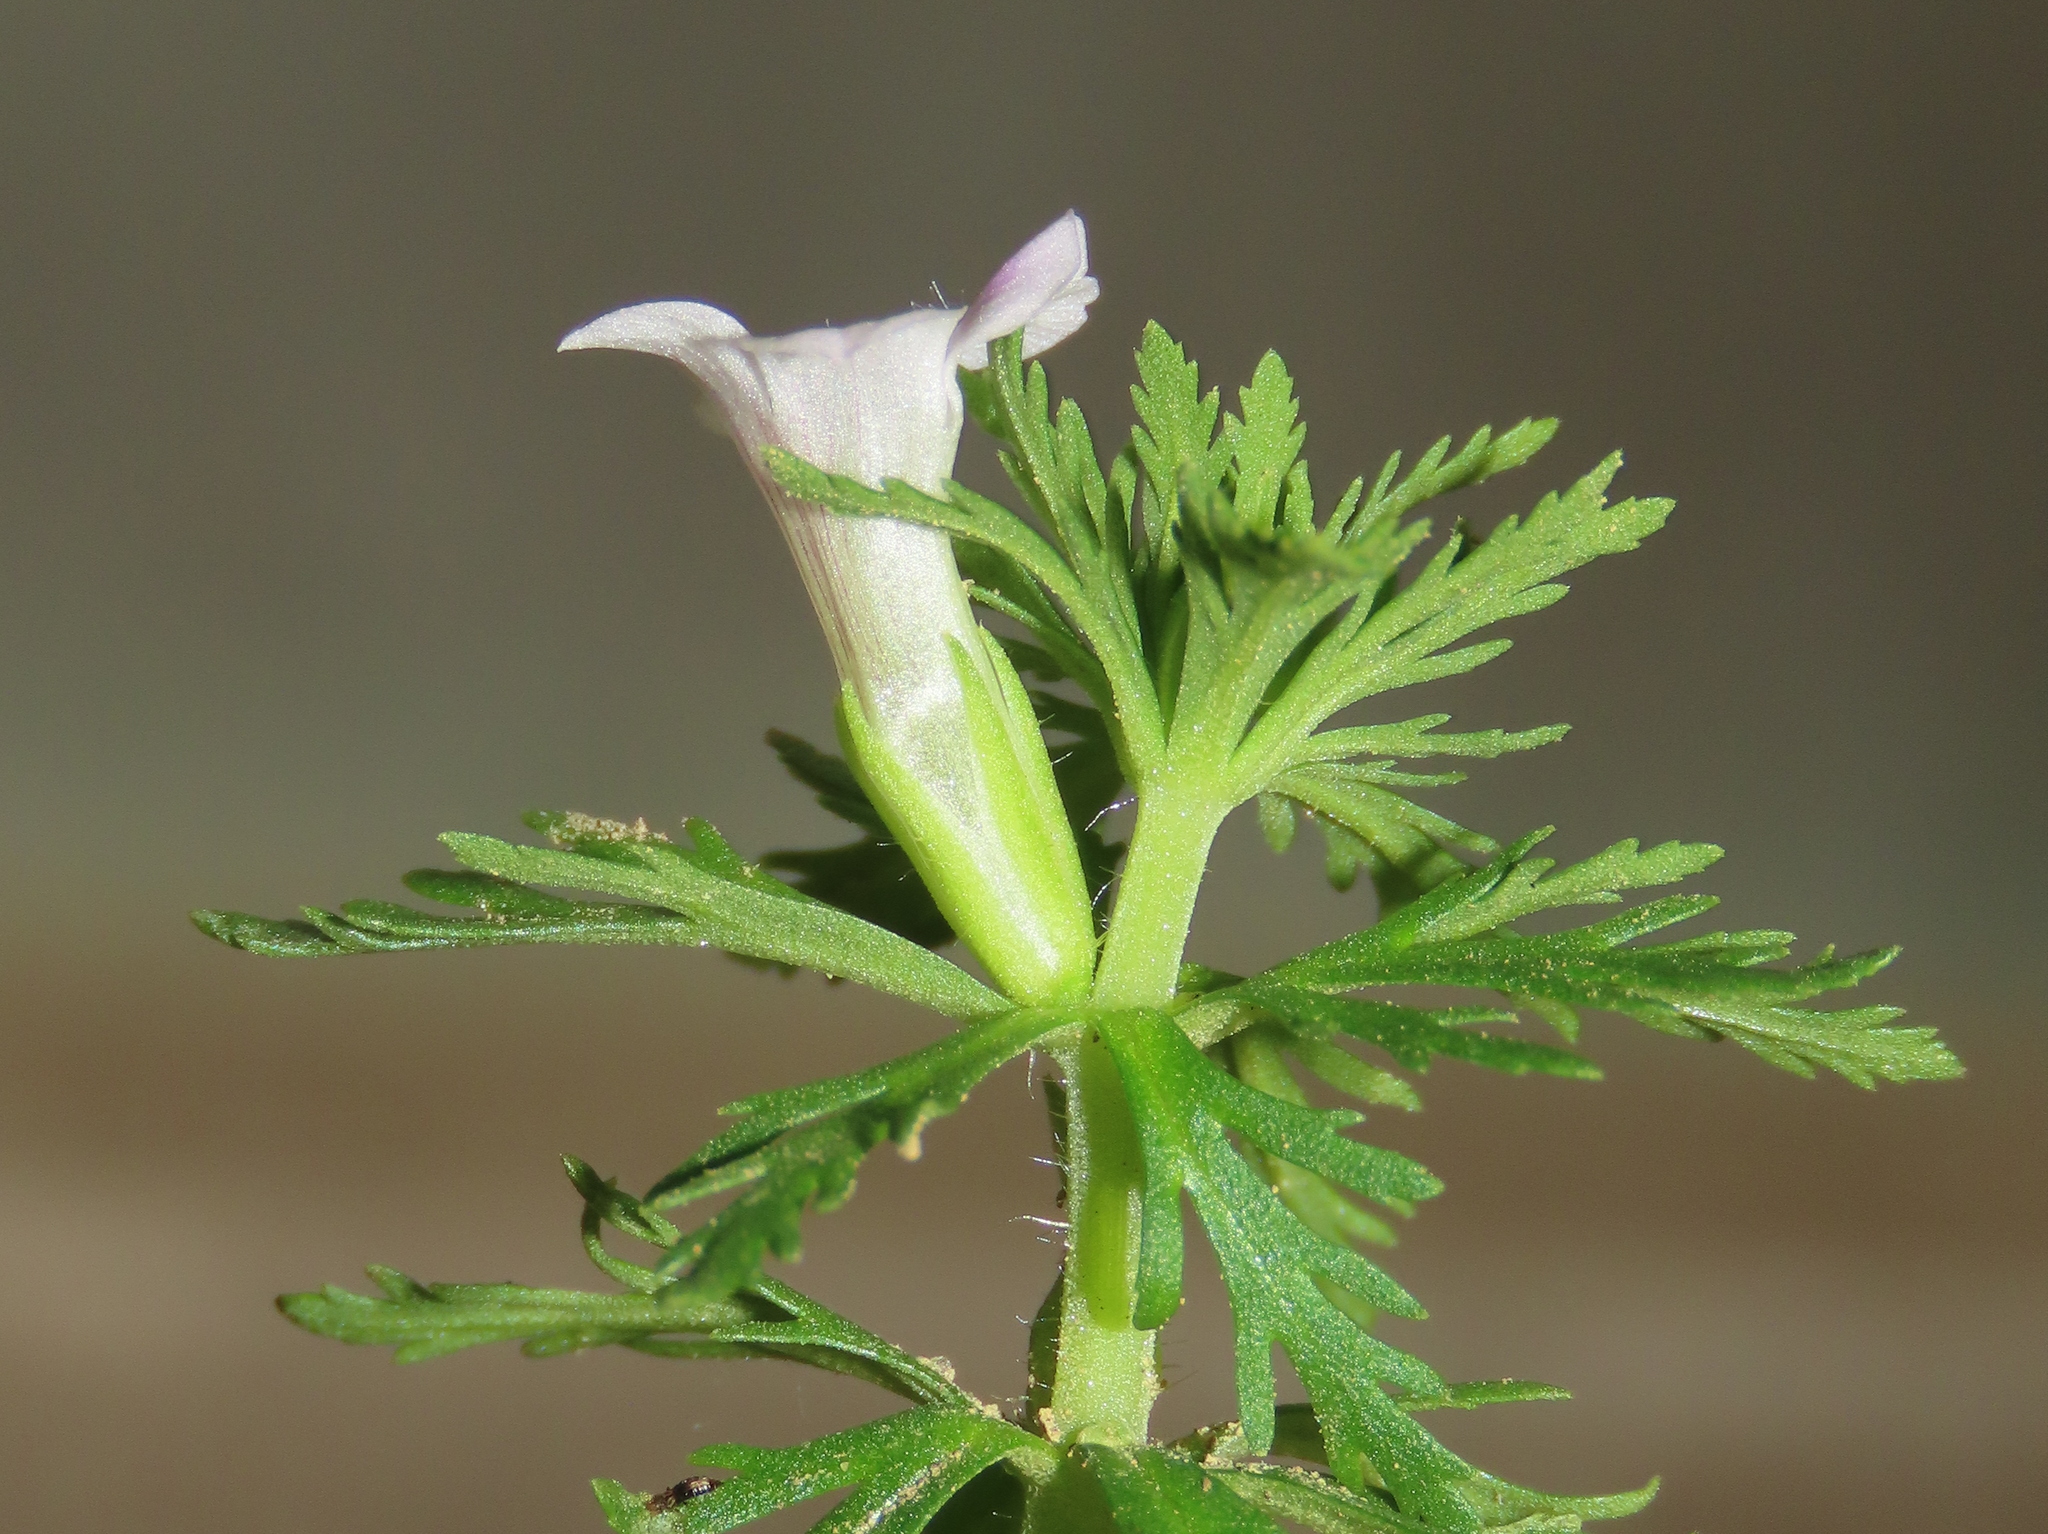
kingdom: Plantae
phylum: Tracheophyta
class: Magnoliopsida
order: Lamiales
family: Plantaginaceae
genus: Limnophila
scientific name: Limnophila sessiliflora
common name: Asian marshweed
